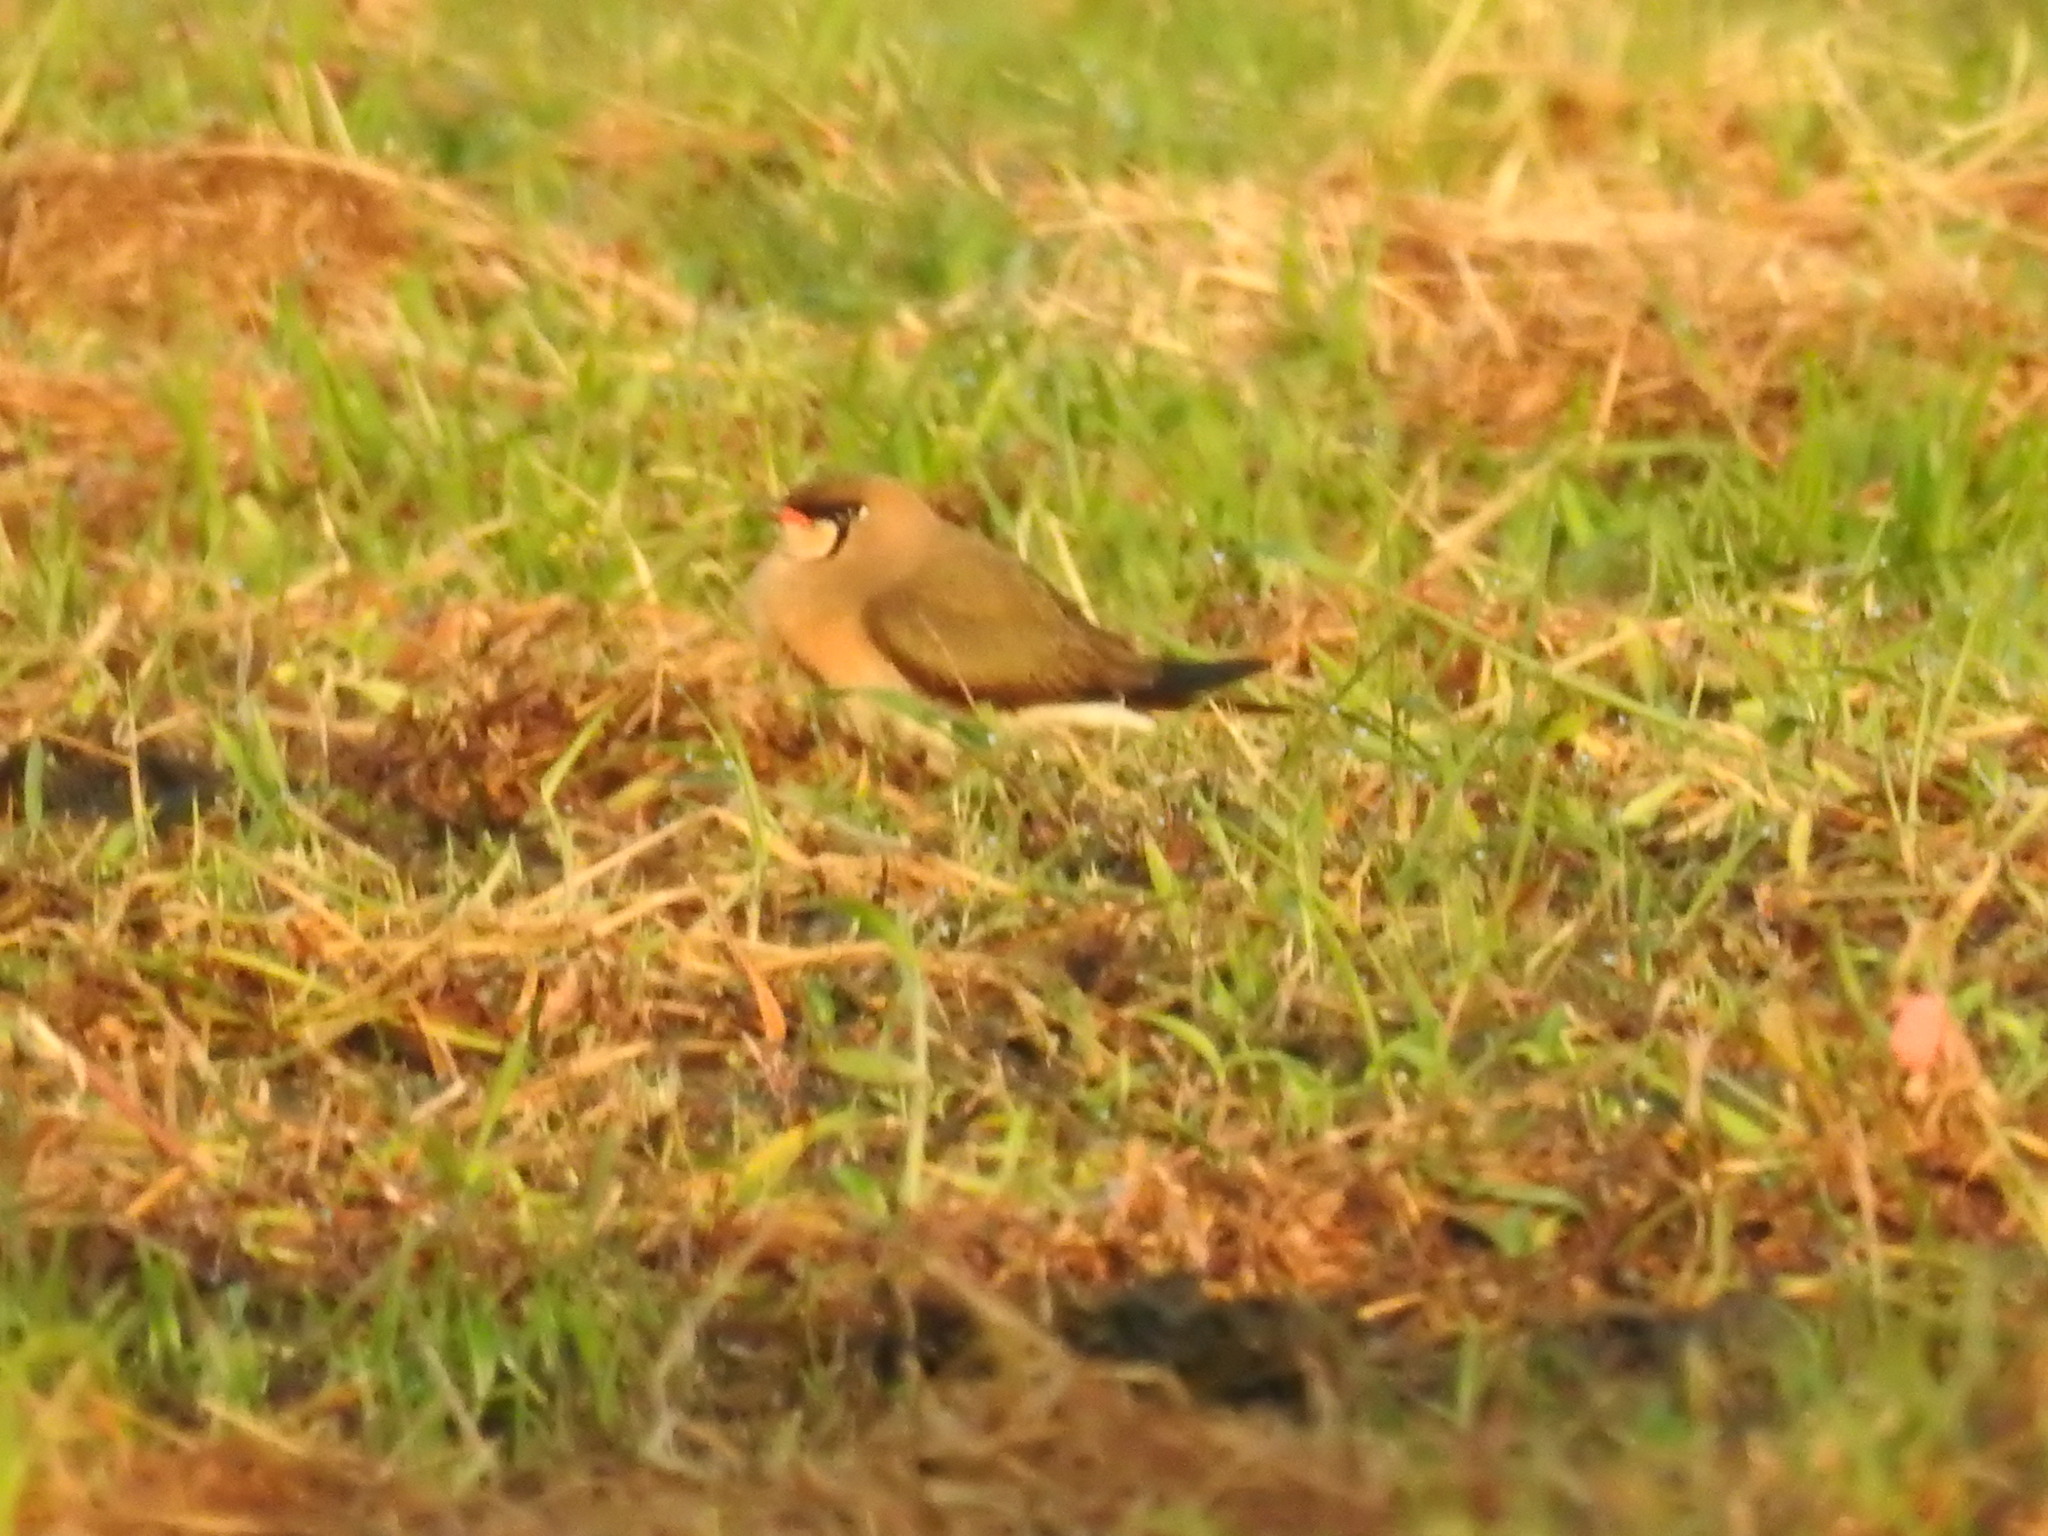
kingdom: Animalia
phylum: Chordata
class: Aves
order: Charadriiformes
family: Glareolidae
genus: Glareola
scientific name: Glareola maldivarum
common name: Oriental pratincole
